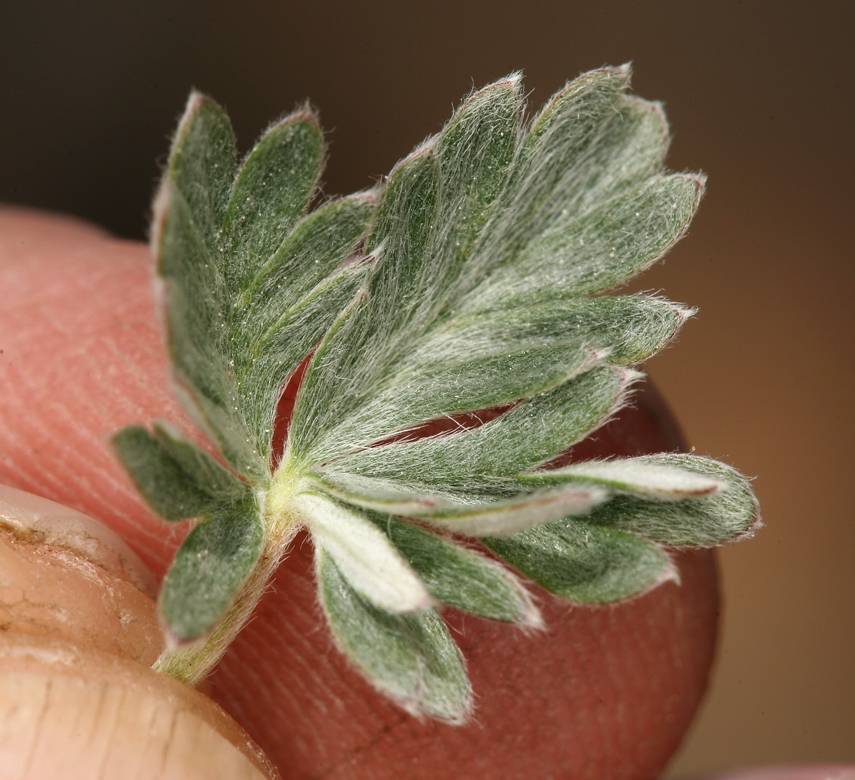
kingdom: Plantae
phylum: Tracheophyta
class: Magnoliopsida
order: Rosales
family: Rosaceae
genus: Potentilla
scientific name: Potentilla pseudosericea
